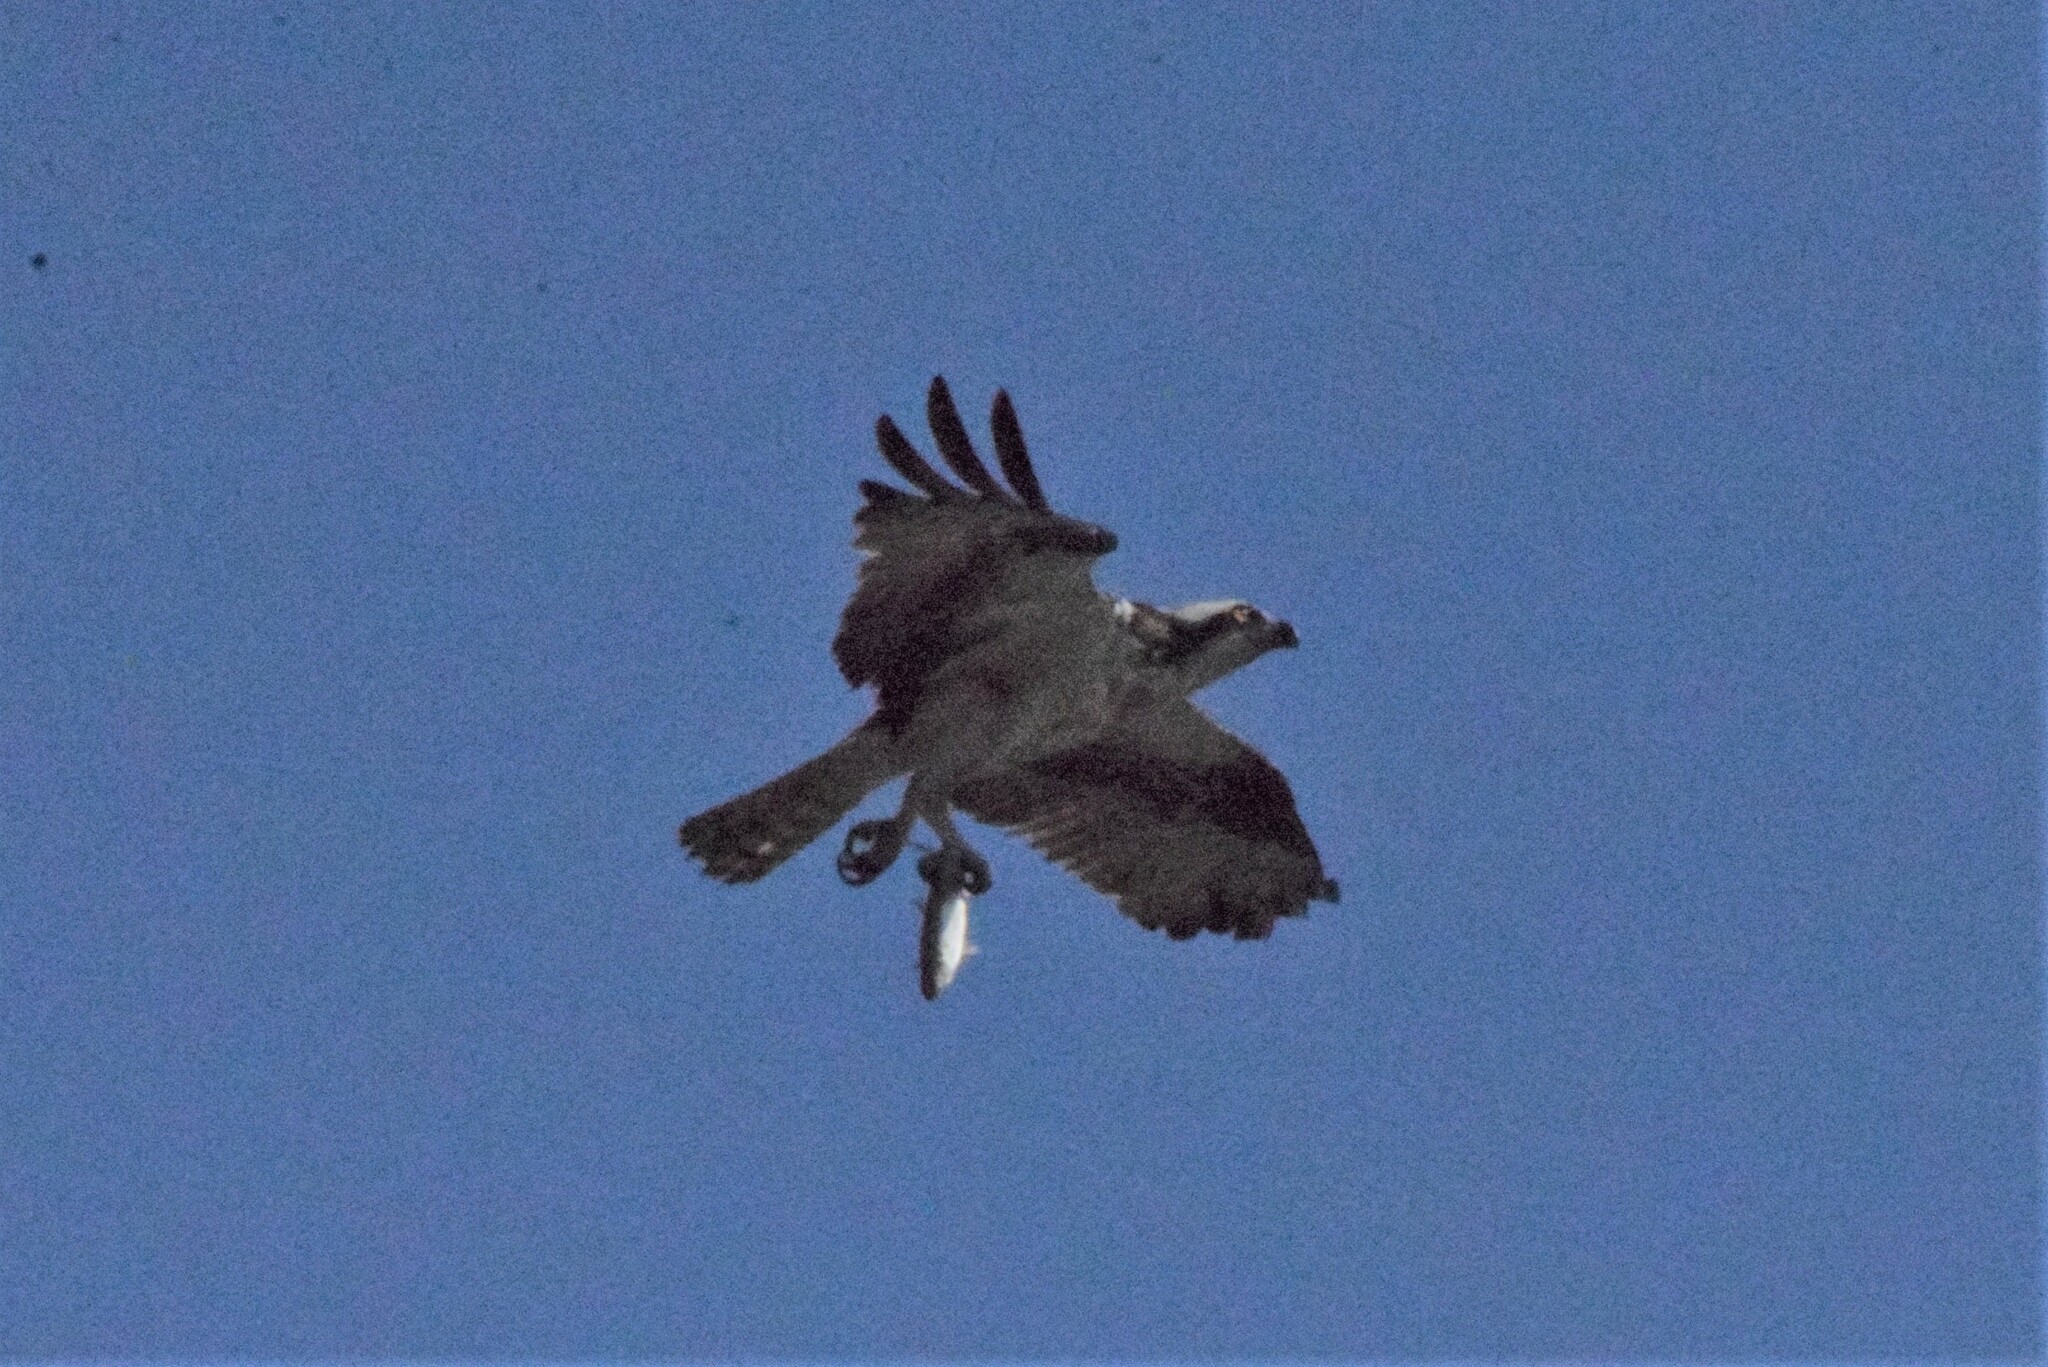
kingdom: Animalia
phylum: Chordata
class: Aves
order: Accipitriformes
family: Pandionidae
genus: Pandion
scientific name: Pandion haliaetus
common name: Osprey
